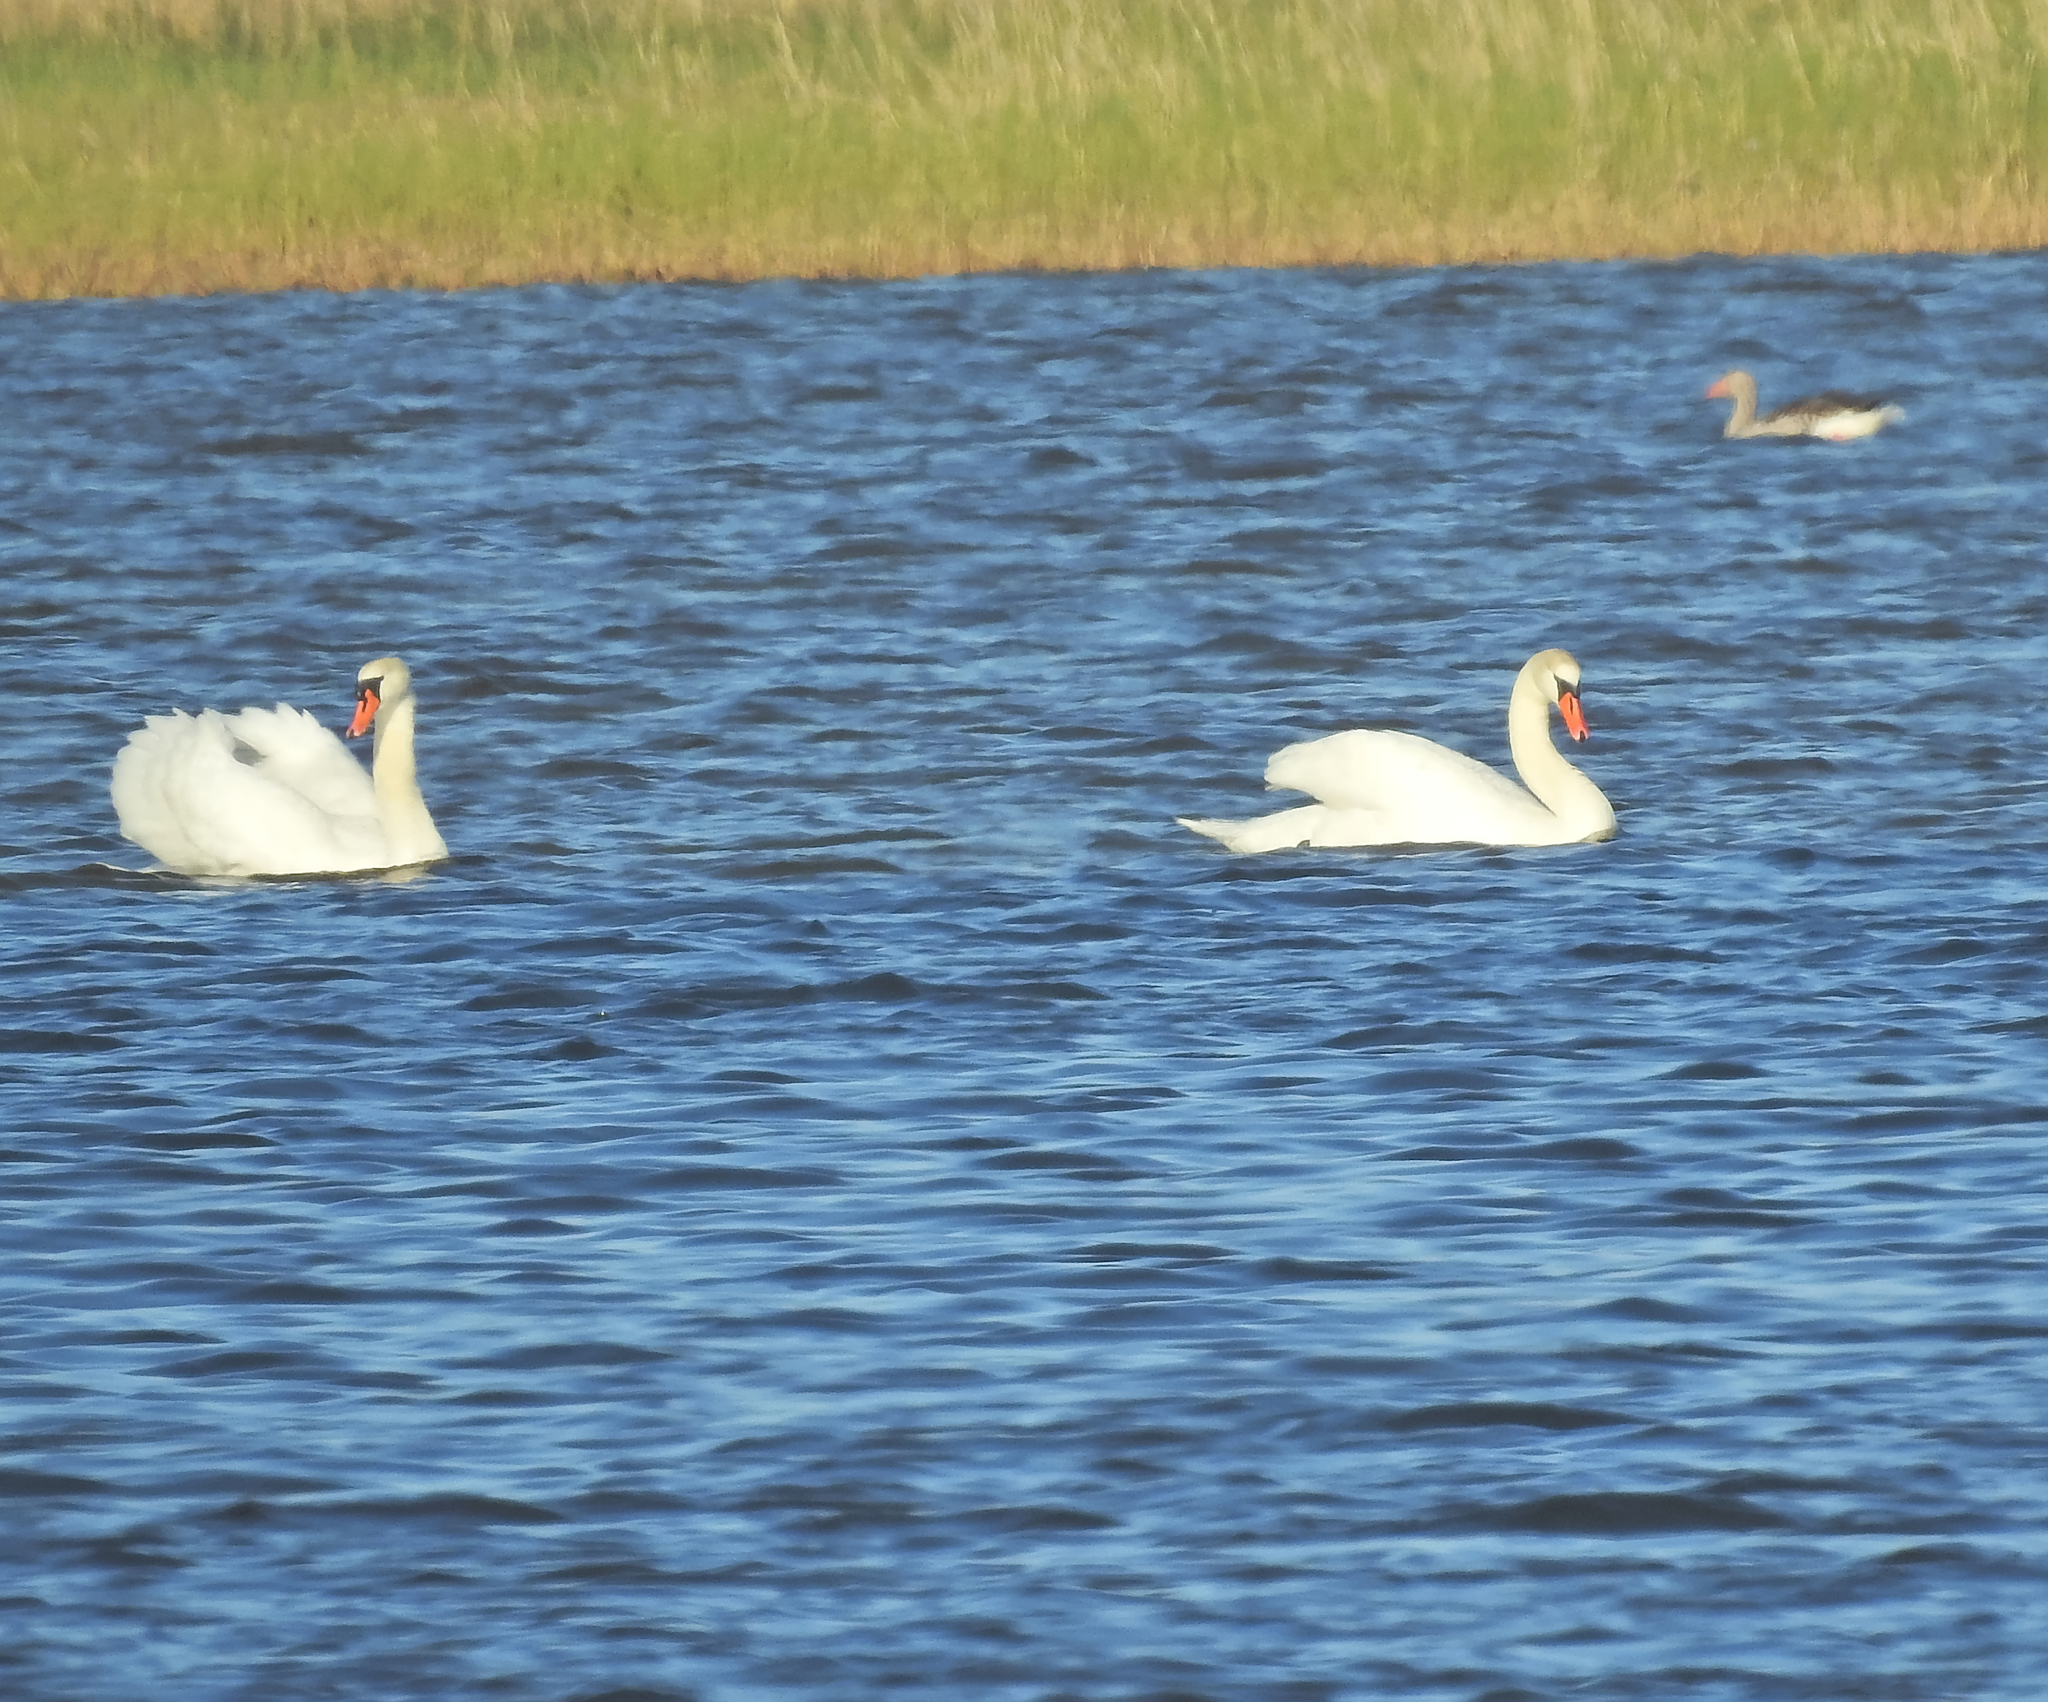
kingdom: Animalia
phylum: Chordata
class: Aves
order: Anseriformes
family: Anatidae
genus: Cygnus
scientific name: Cygnus olor
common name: Mute swan
